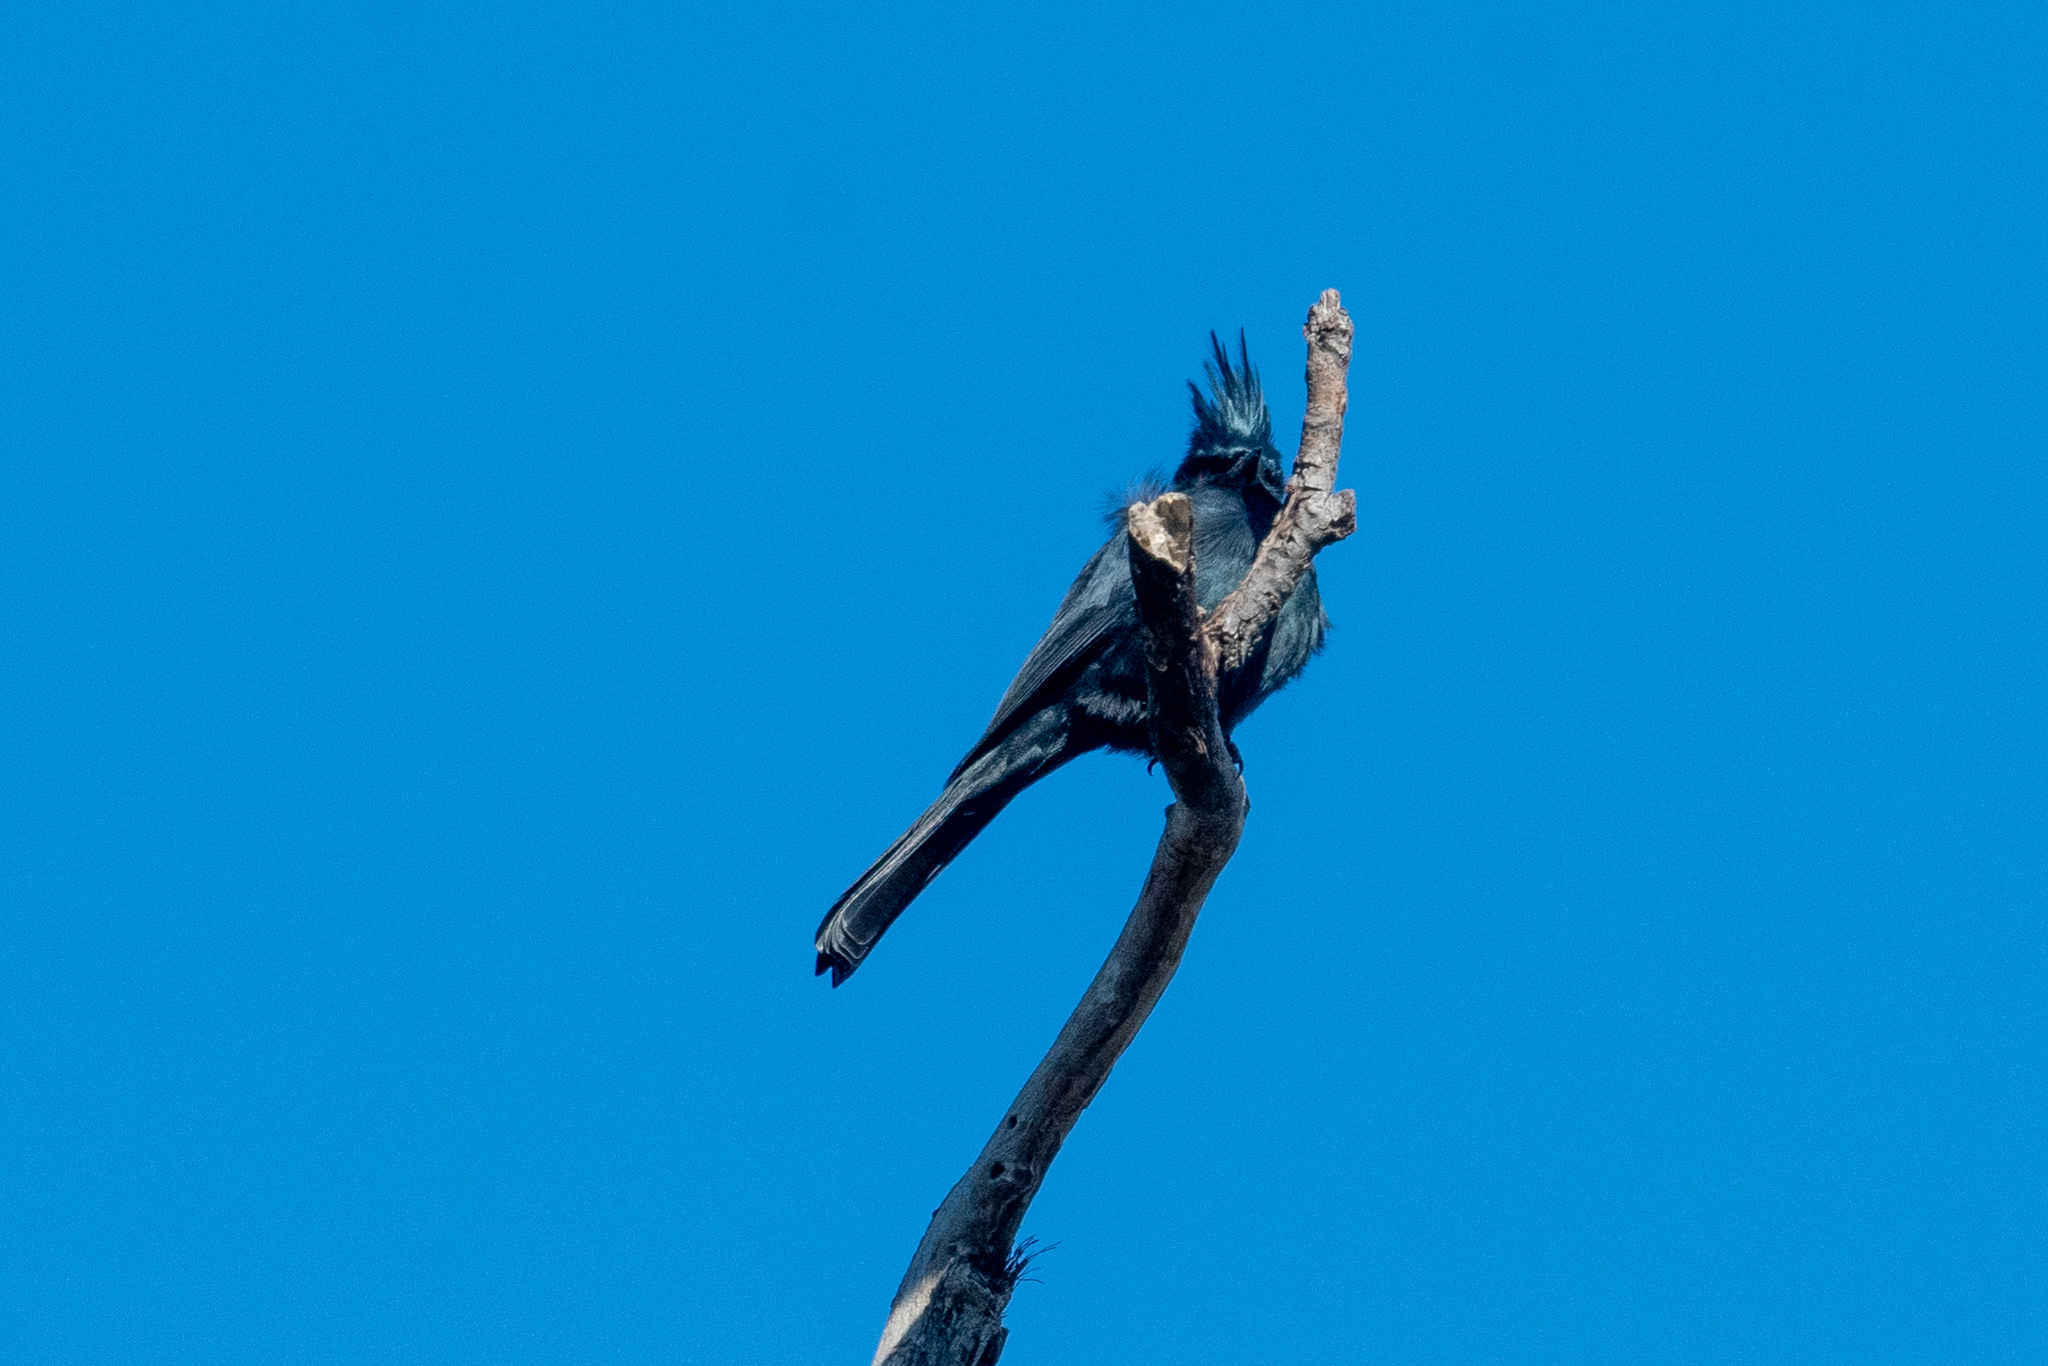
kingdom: Animalia
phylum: Chordata
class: Aves
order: Passeriformes
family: Ptilogonatidae
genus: Phainopepla
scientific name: Phainopepla nitens
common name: Phainopepla
